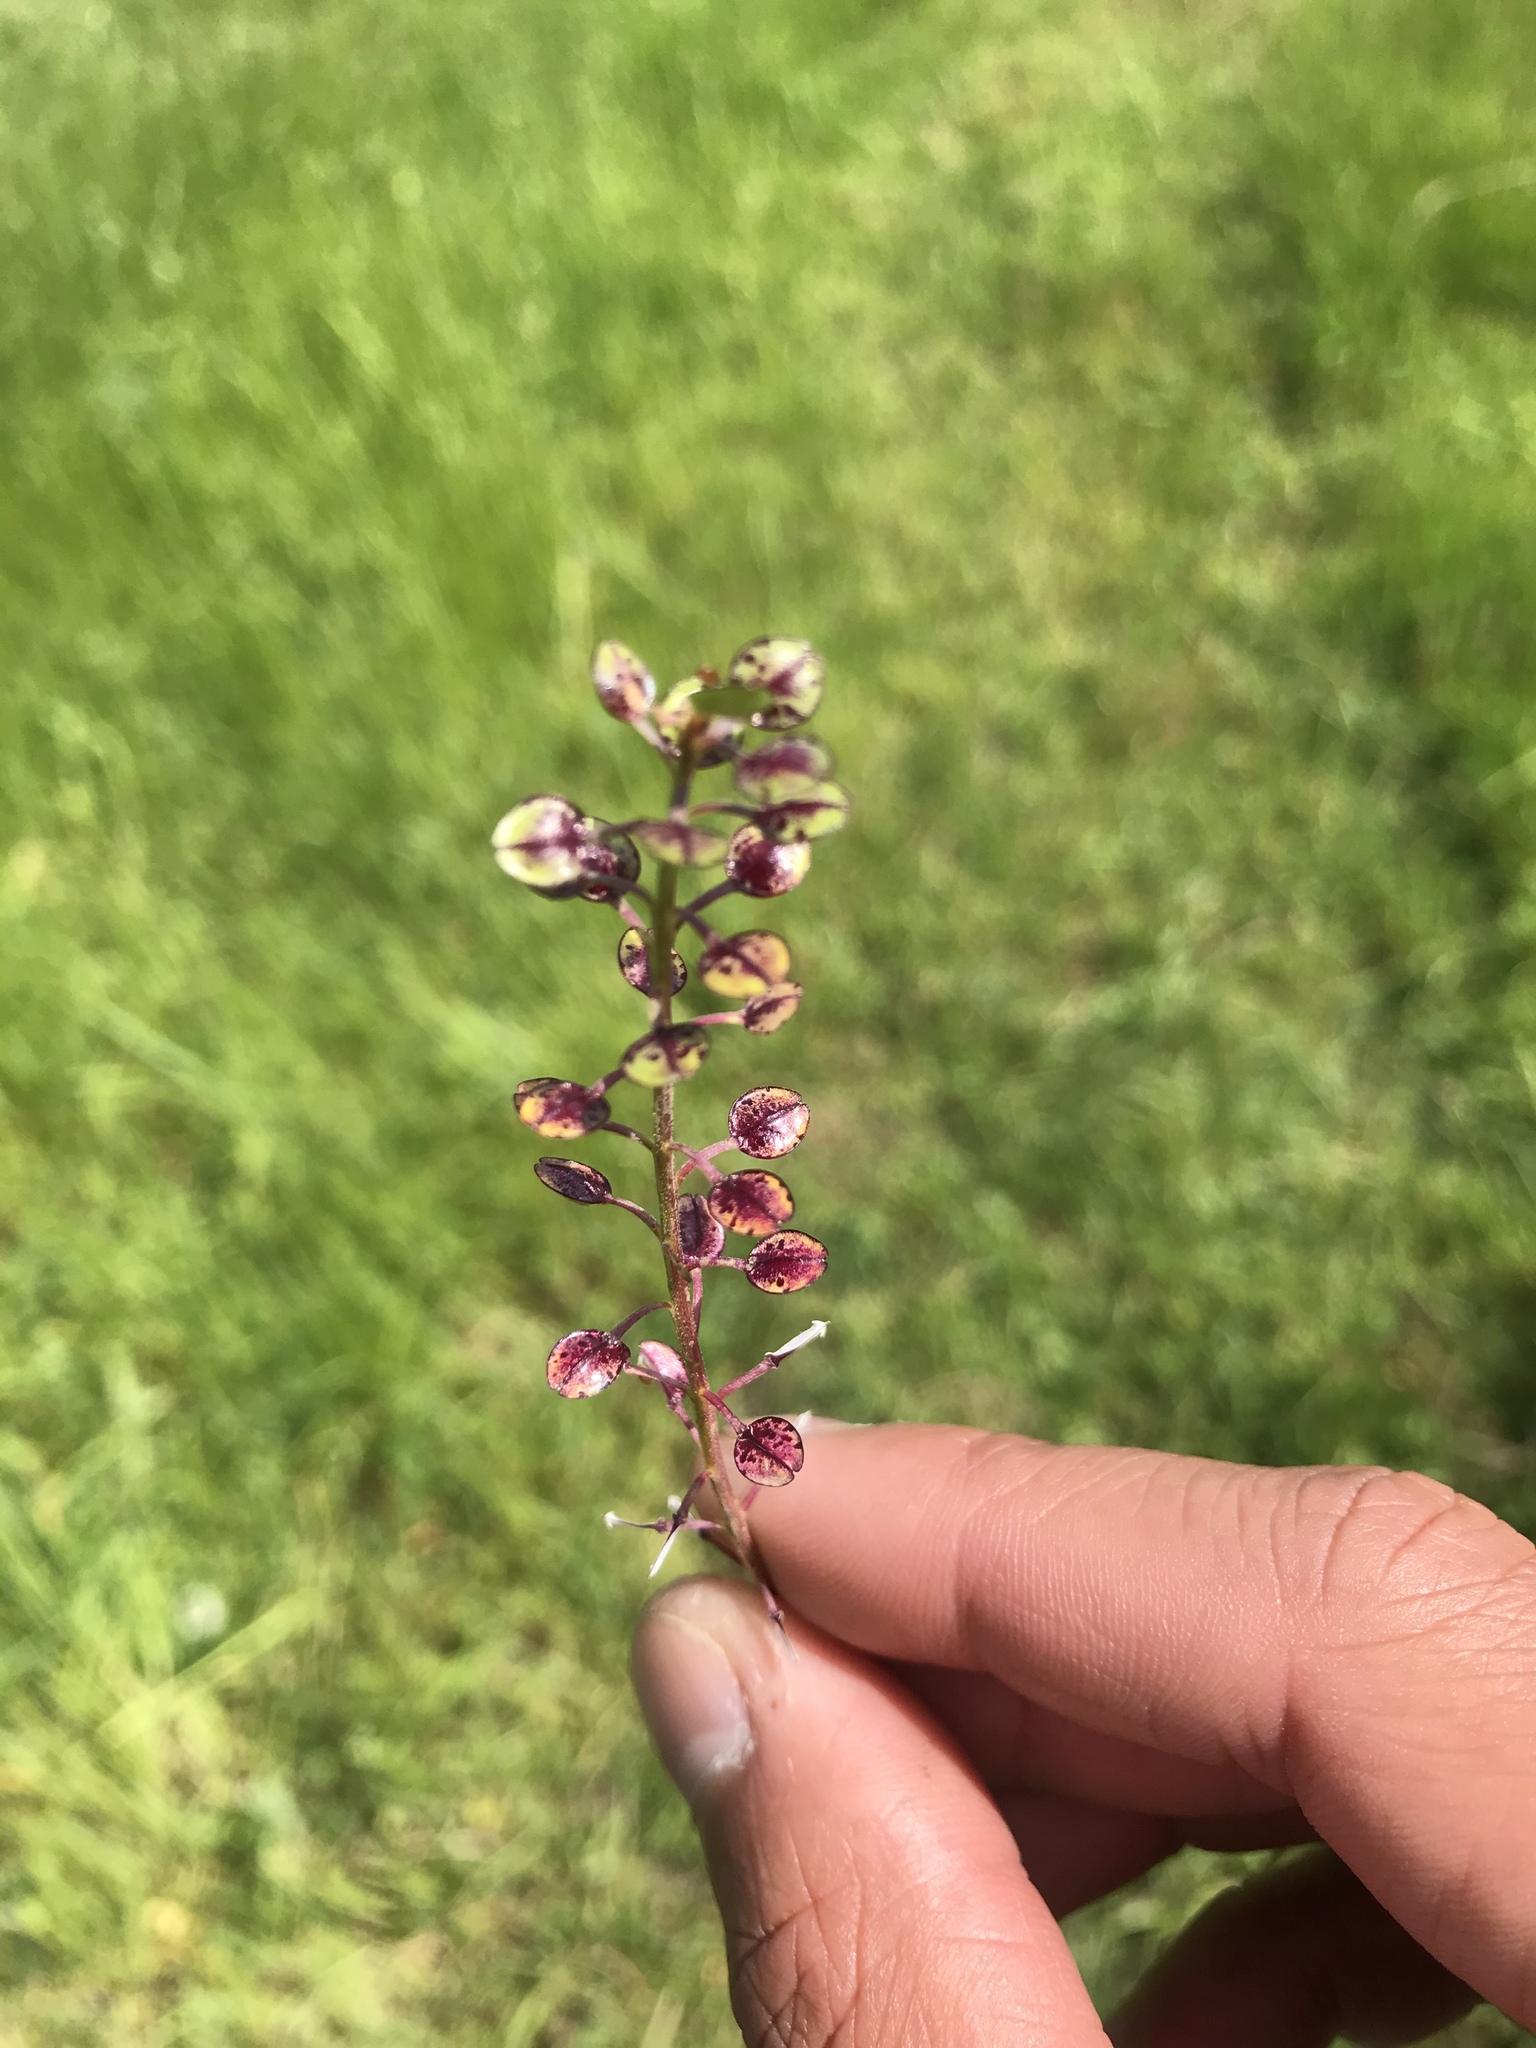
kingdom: Plantae
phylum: Tracheophyta
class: Magnoliopsida
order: Brassicales
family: Brassicaceae
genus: Lepidium
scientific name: Lepidium nitidum
